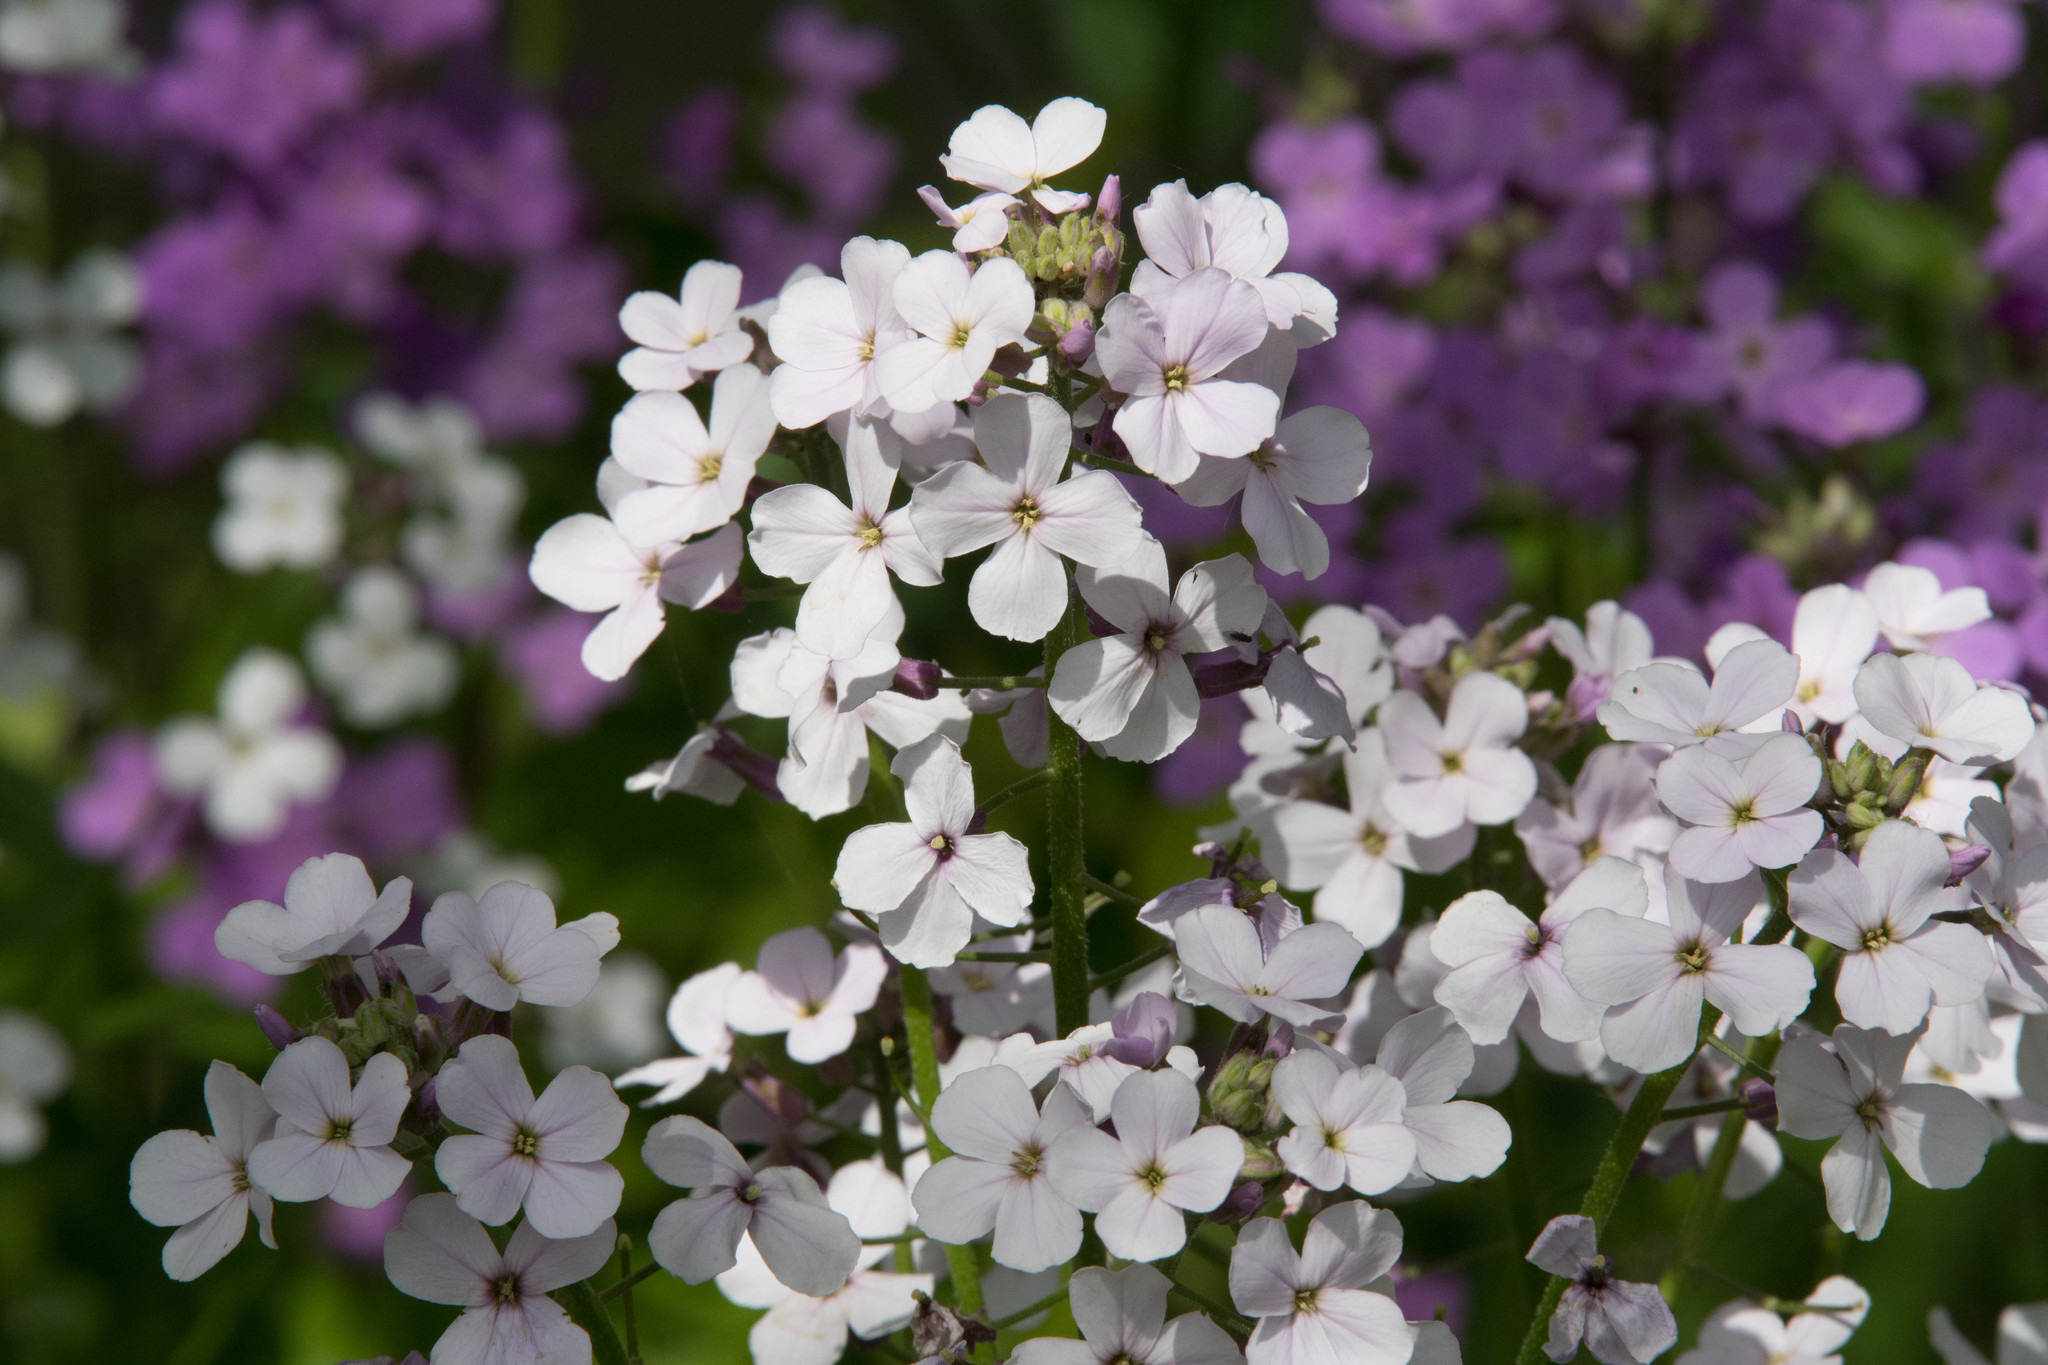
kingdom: Plantae
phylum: Tracheophyta
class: Magnoliopsida
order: Brassicales
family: Brassicaceae
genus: Hesperis
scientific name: Hesperis matronalis
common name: Dame's-violet
